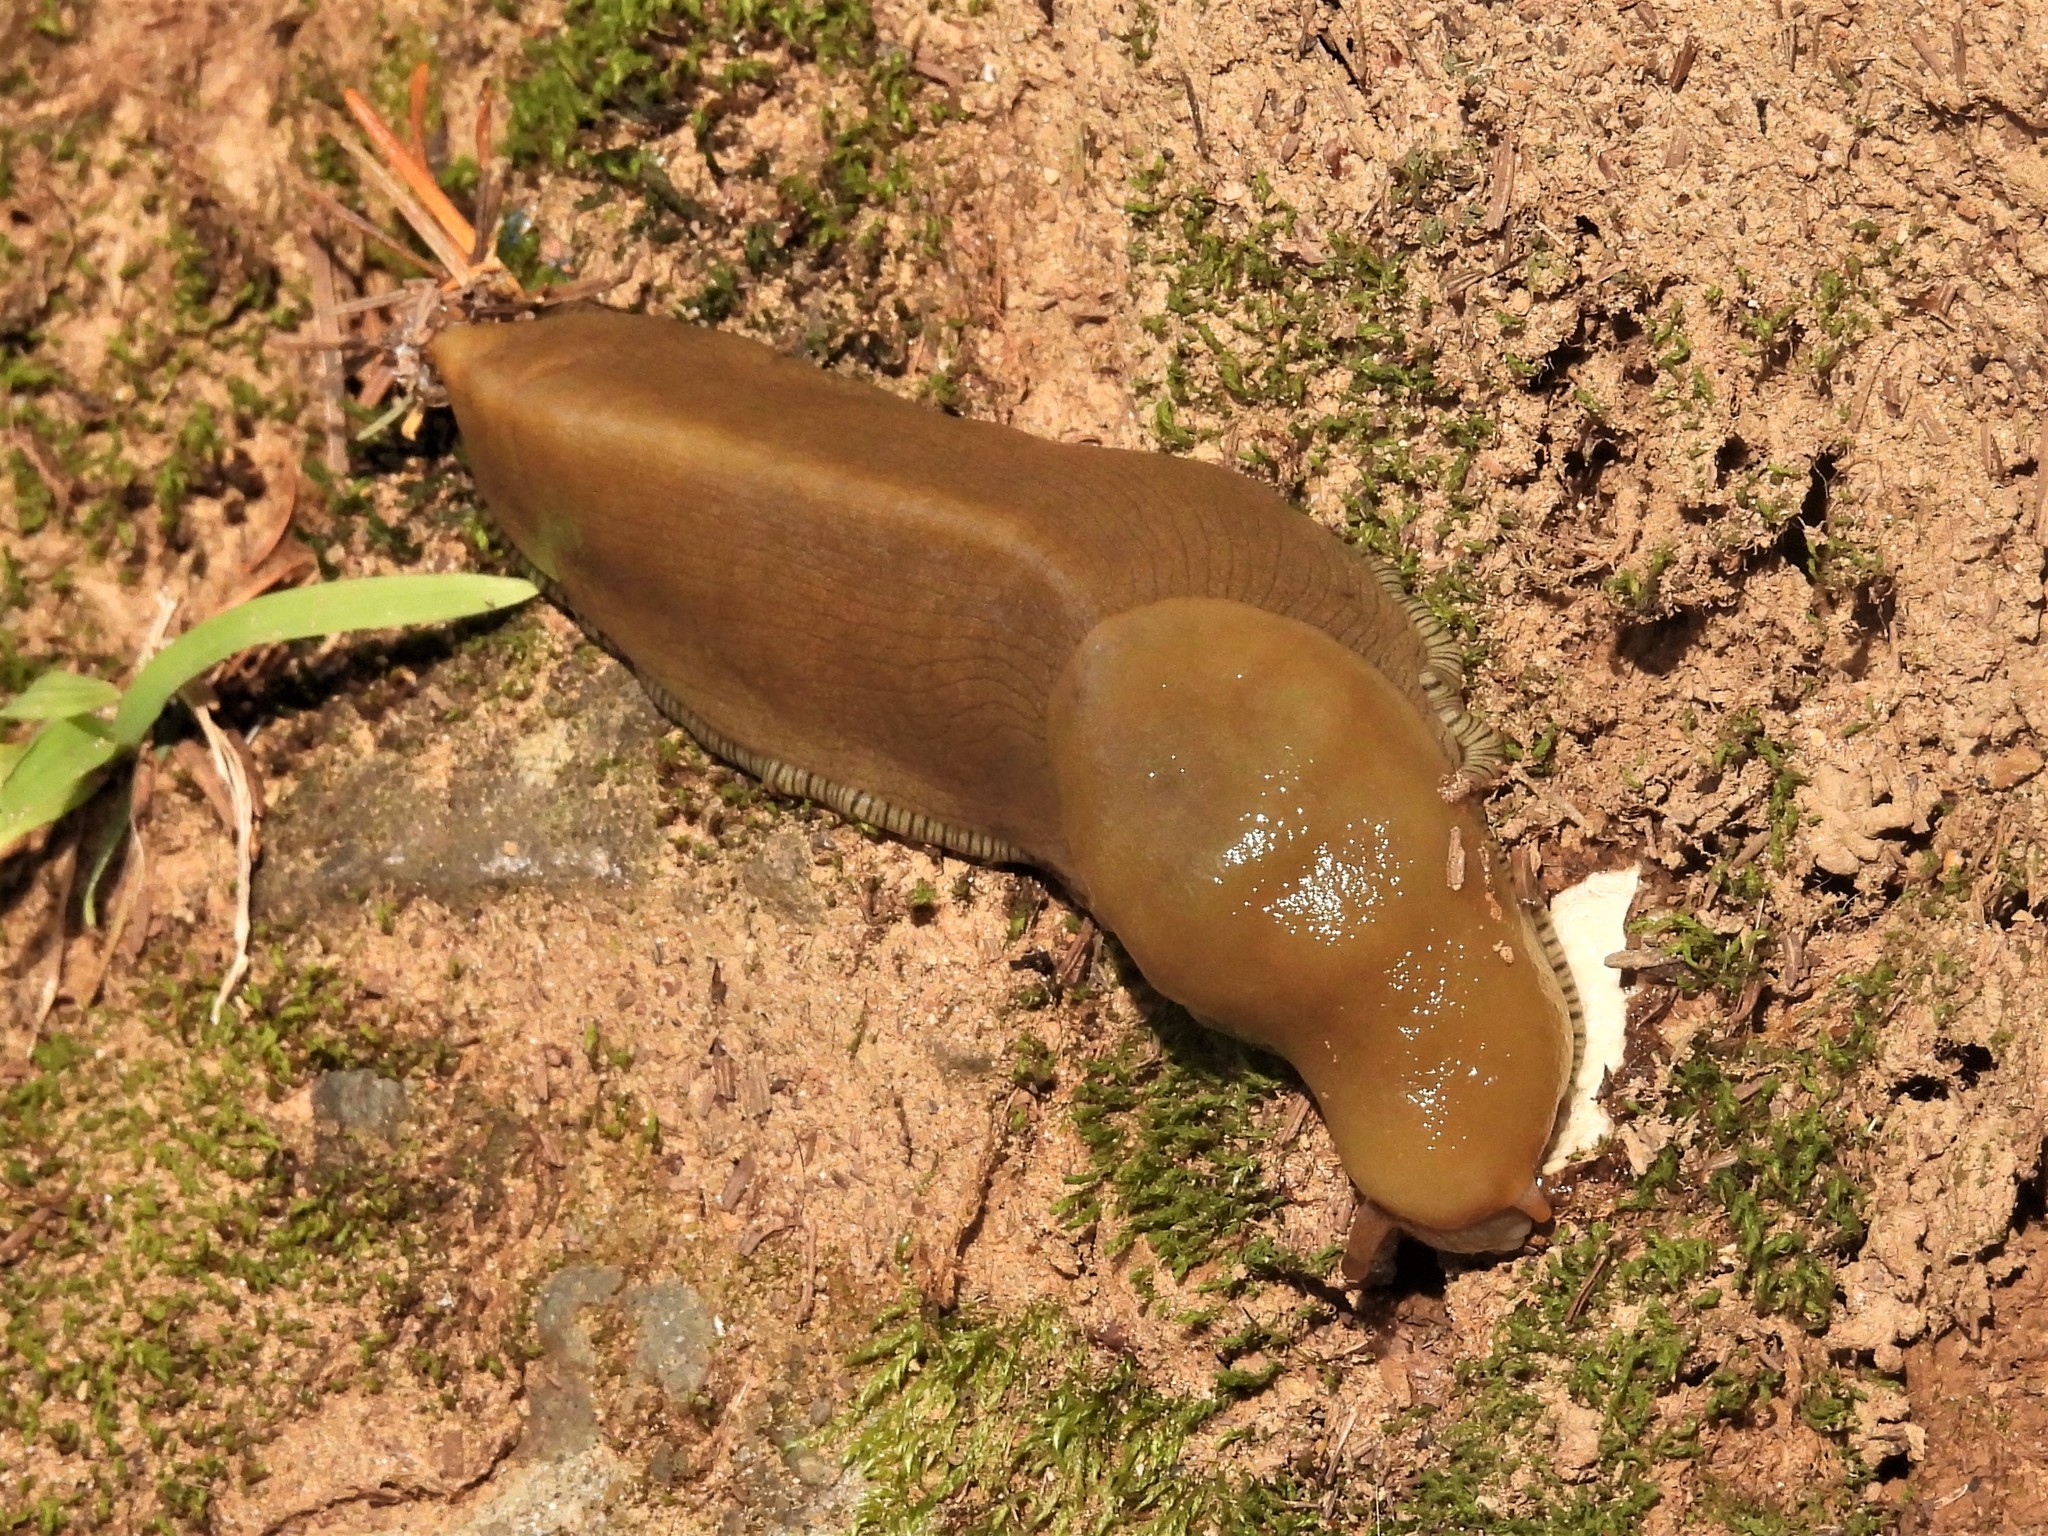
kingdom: Animalia
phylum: Mollusca
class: Gastropoda
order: Stylommatophora
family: Ariolimacidae
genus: Ariolimax
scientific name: Ariolimax buttoni
